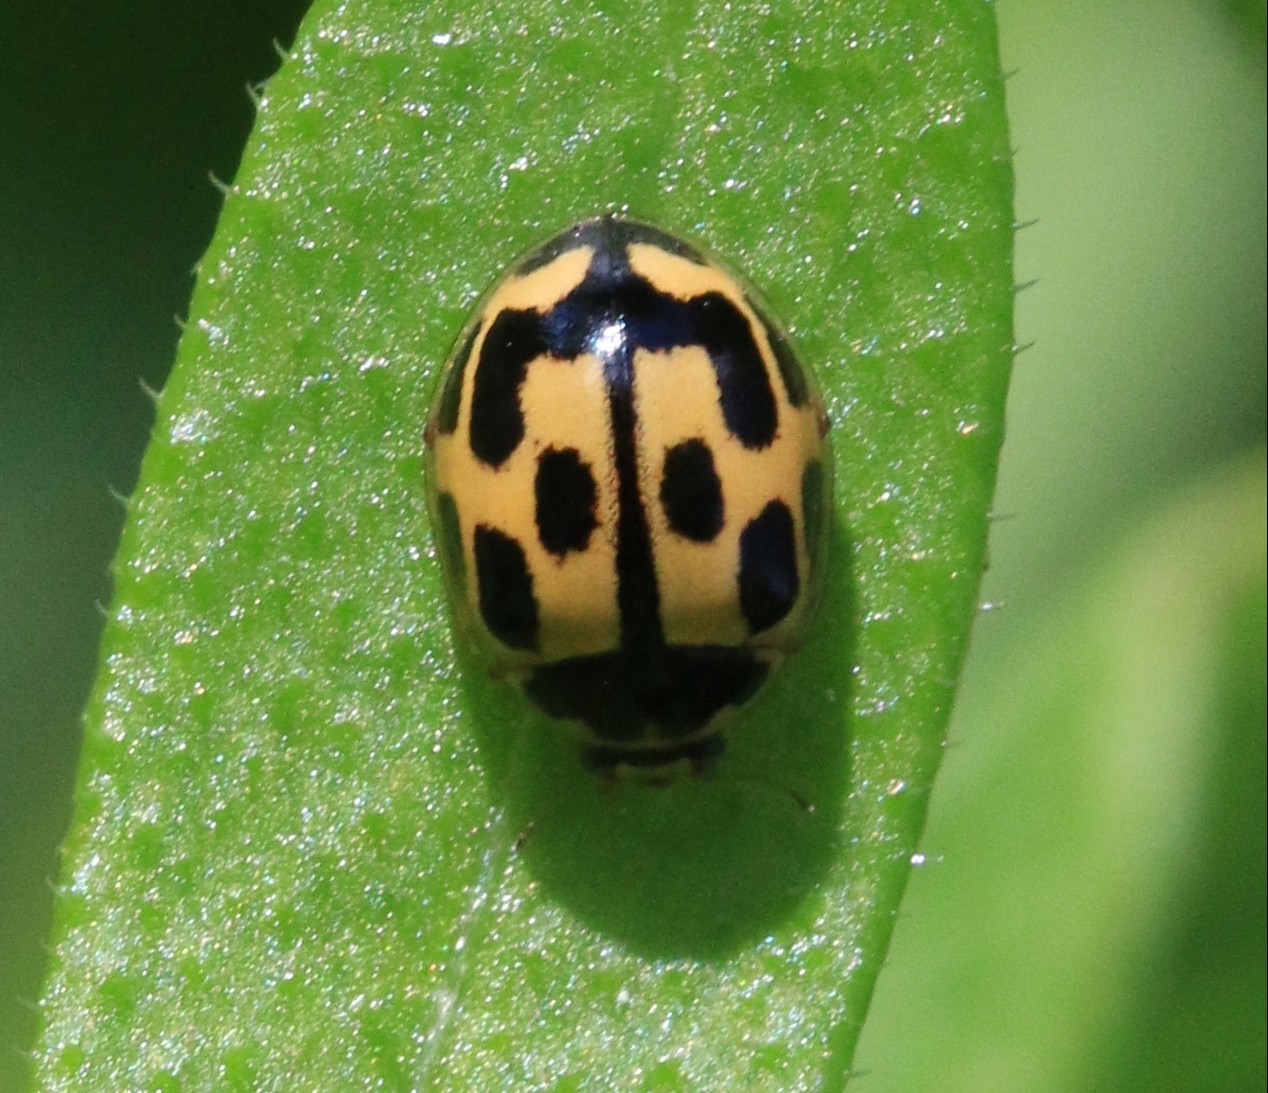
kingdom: Animalia
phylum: Arthropoda
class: Insecta
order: Coleoptera
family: Coccinellidae
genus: Propylaea
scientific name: Propylaea quatuordecimpunctata
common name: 14-spotted ladybird beetle
